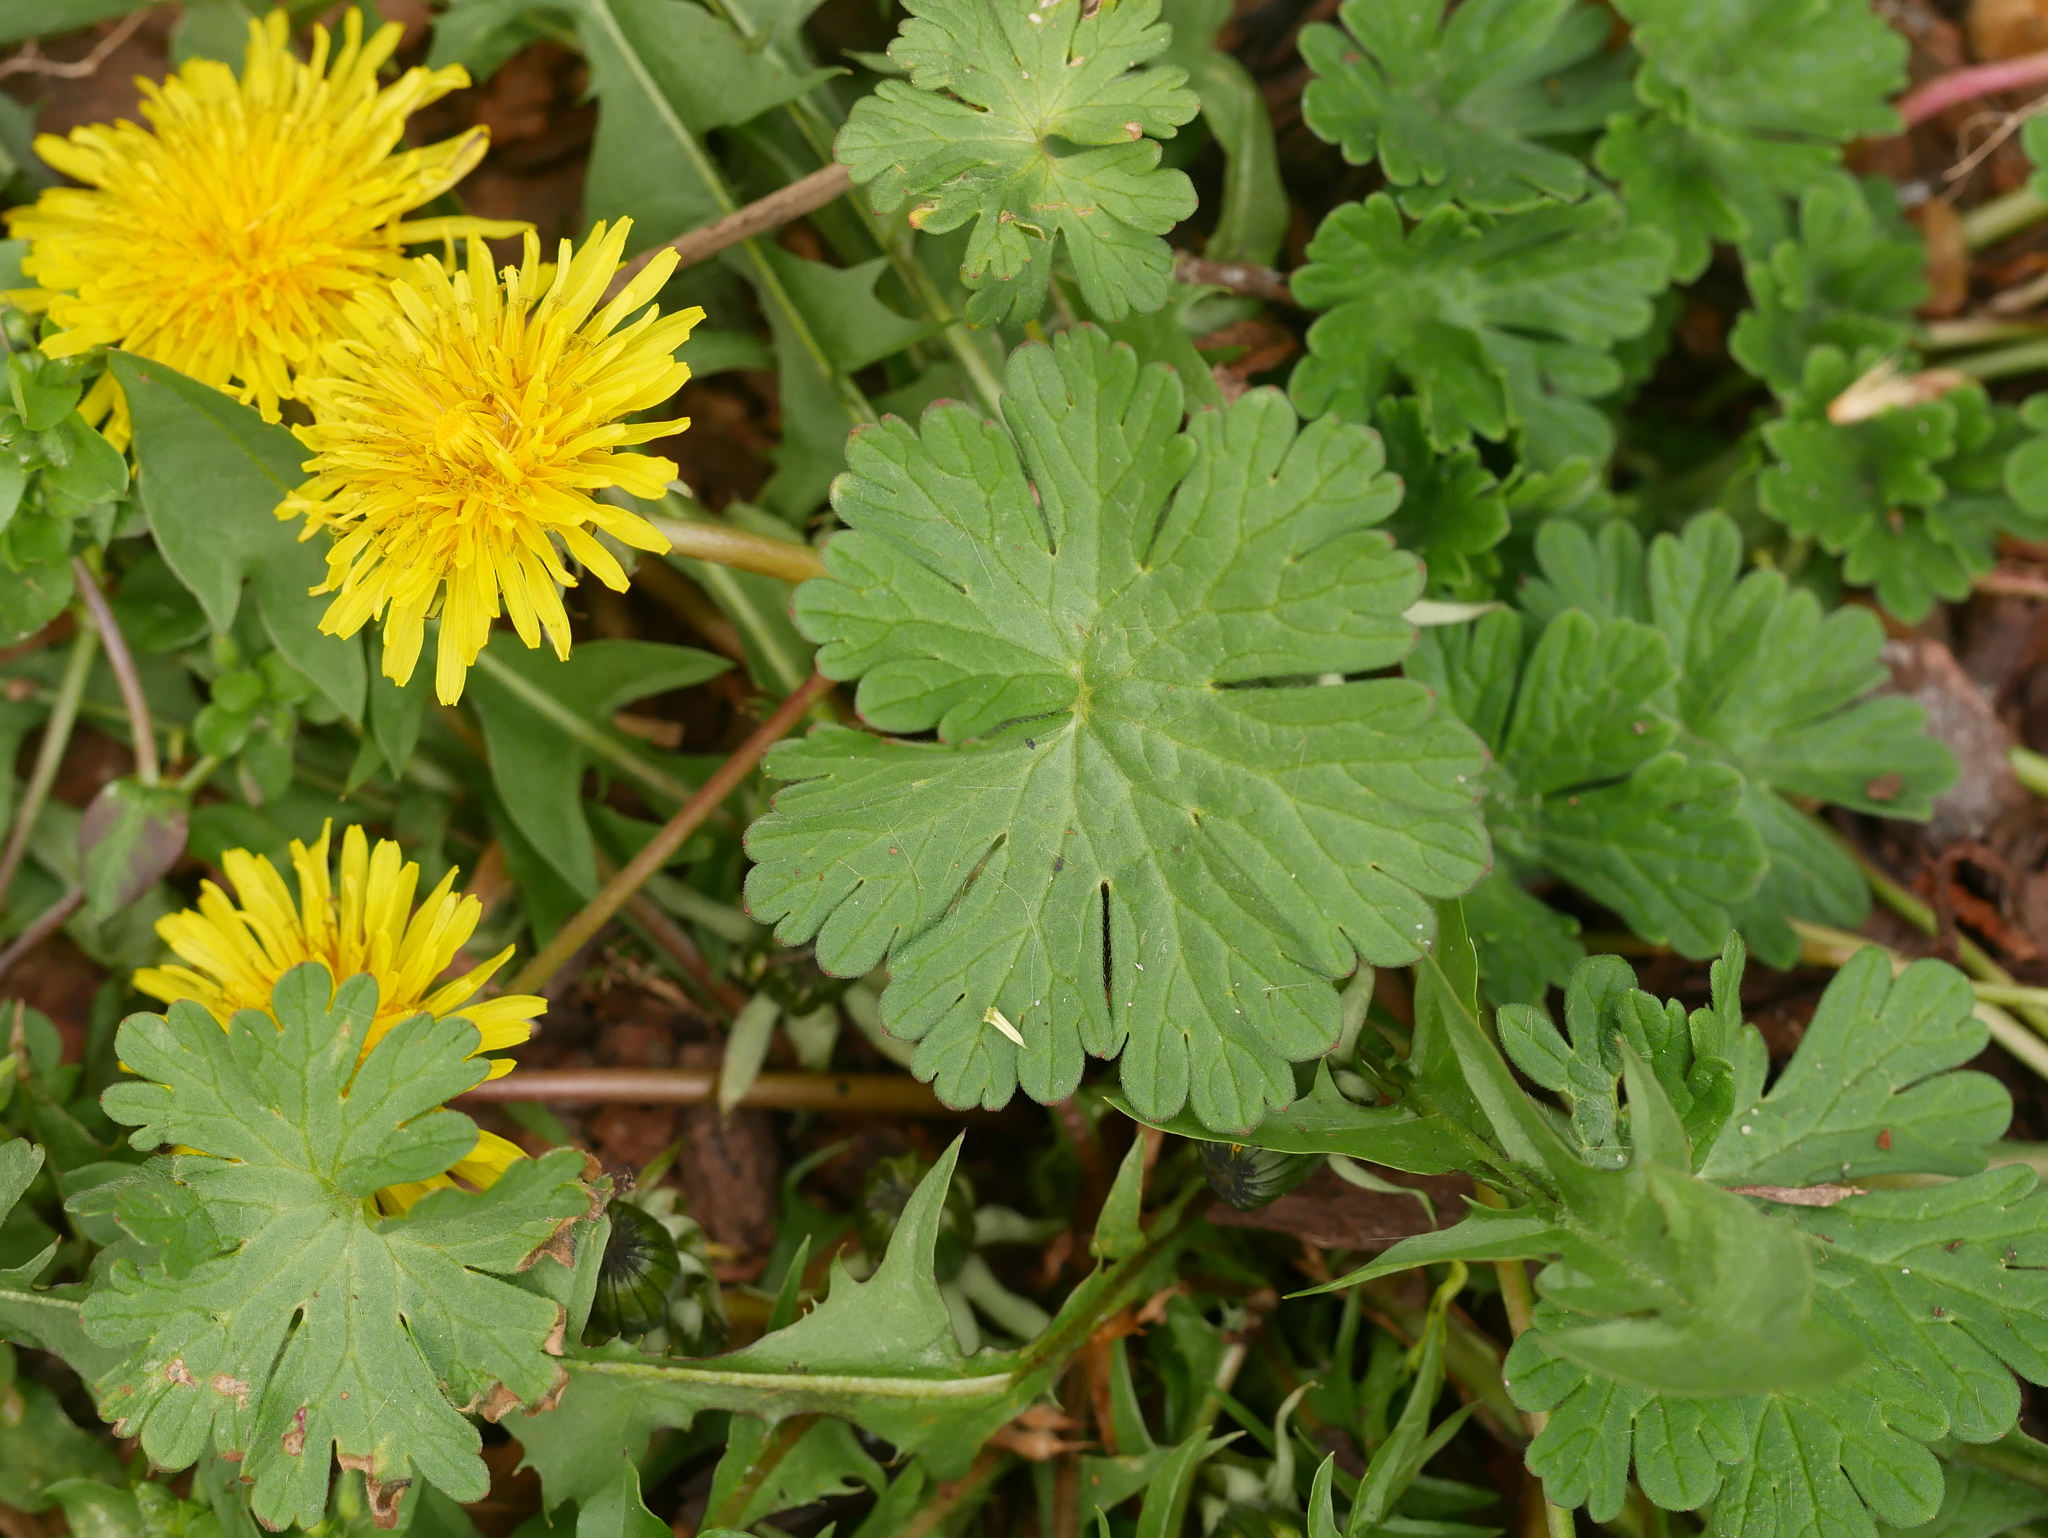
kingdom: Plantae
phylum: Tracheophyta
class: Magnoliopsida
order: Geraniales
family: Geraniaceae
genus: Geranium
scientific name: Geranium molle
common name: Dove's-foot crane's-bill
